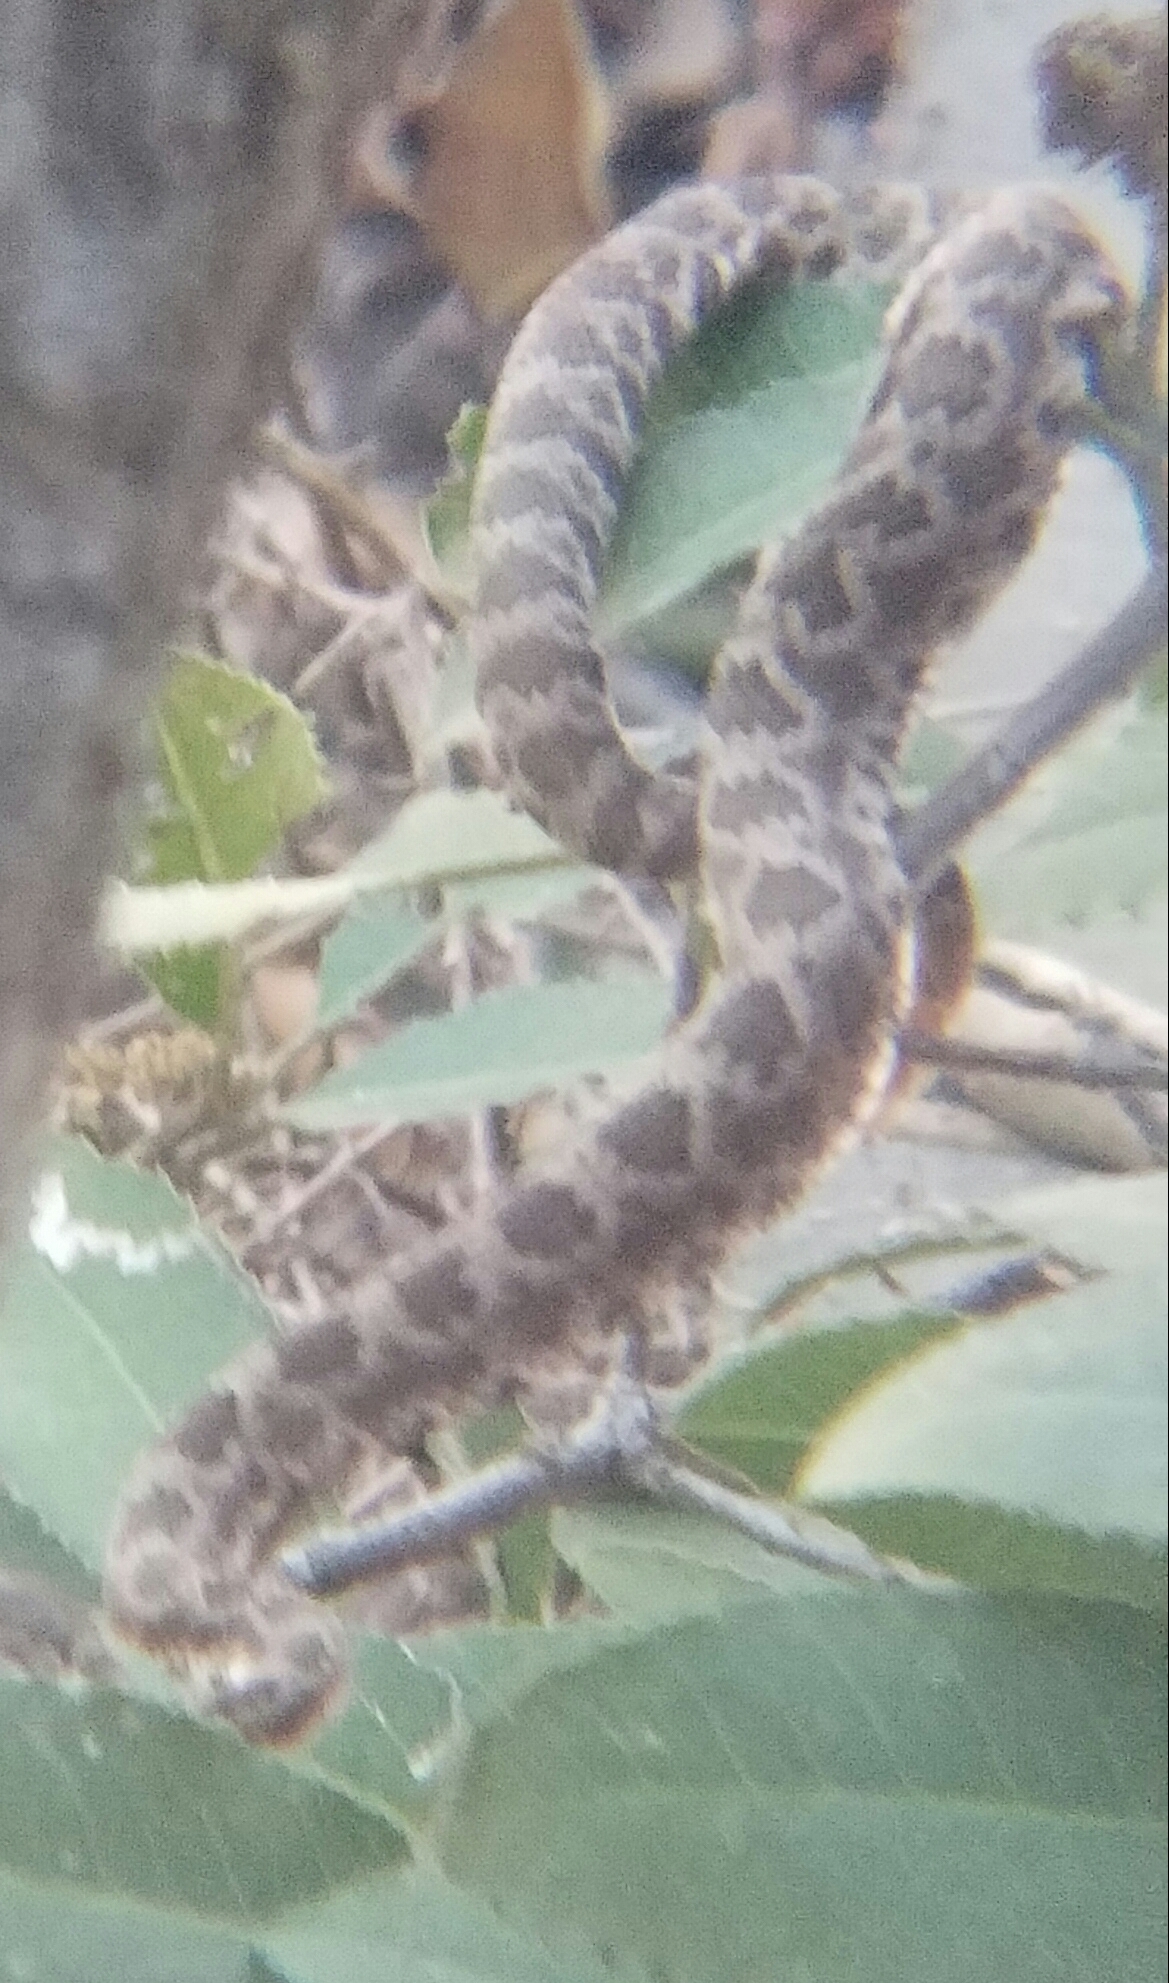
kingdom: Animalia
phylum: Chordata
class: Squamata
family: Viperidae
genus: Crotalus
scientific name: Crotalus oreganus
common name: Abyssus
